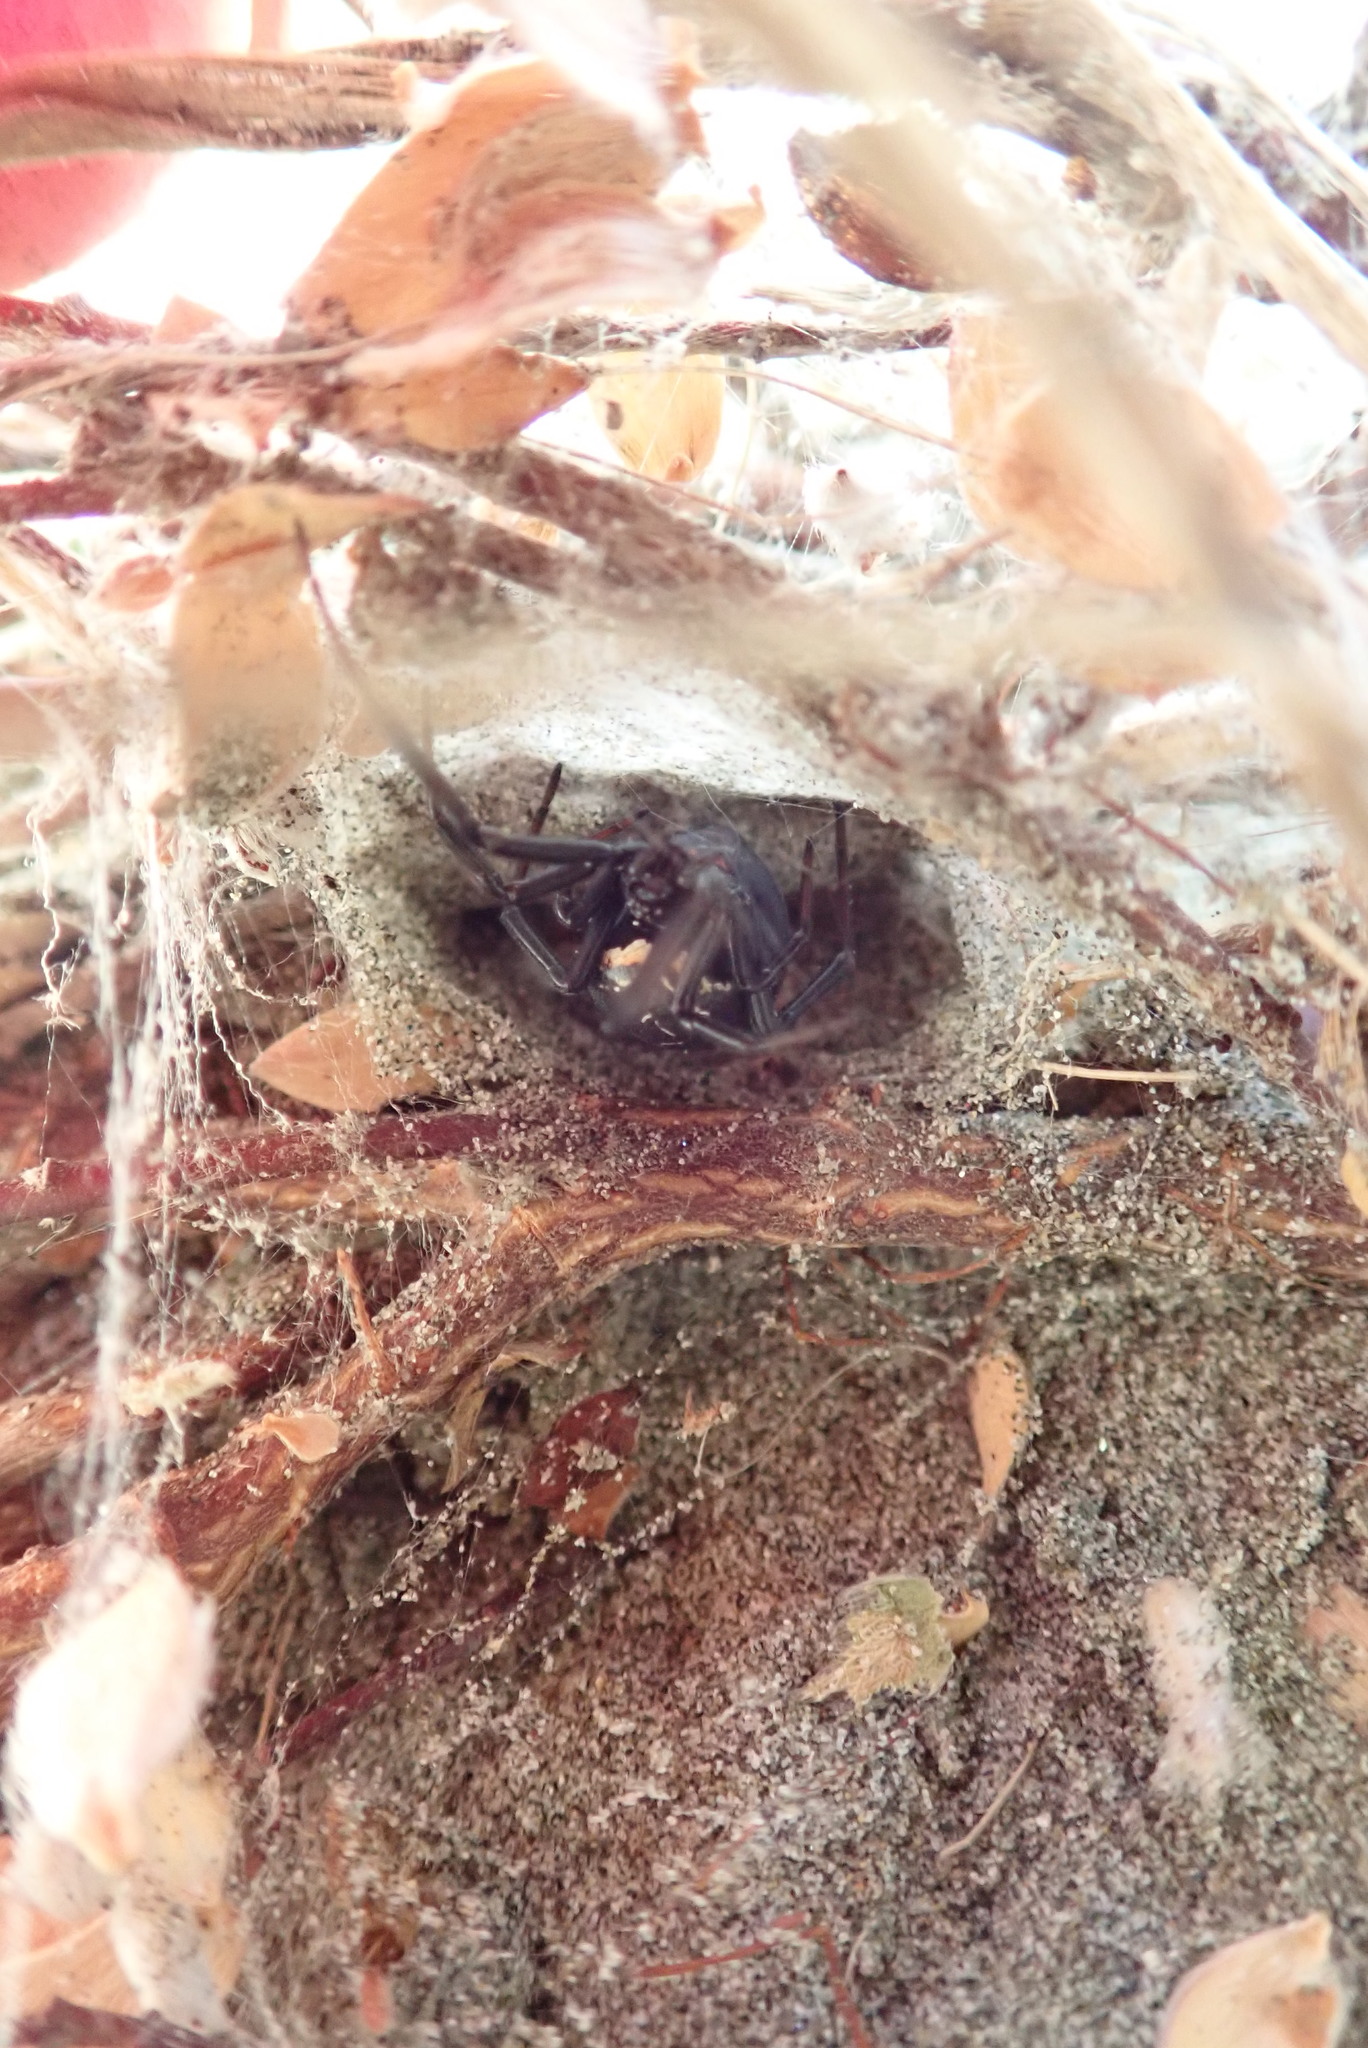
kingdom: Animalia
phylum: Arthropoda
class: Arachnida
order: Araneae
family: Theridiidae
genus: Latrodectus
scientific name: Latrodectus katipo
